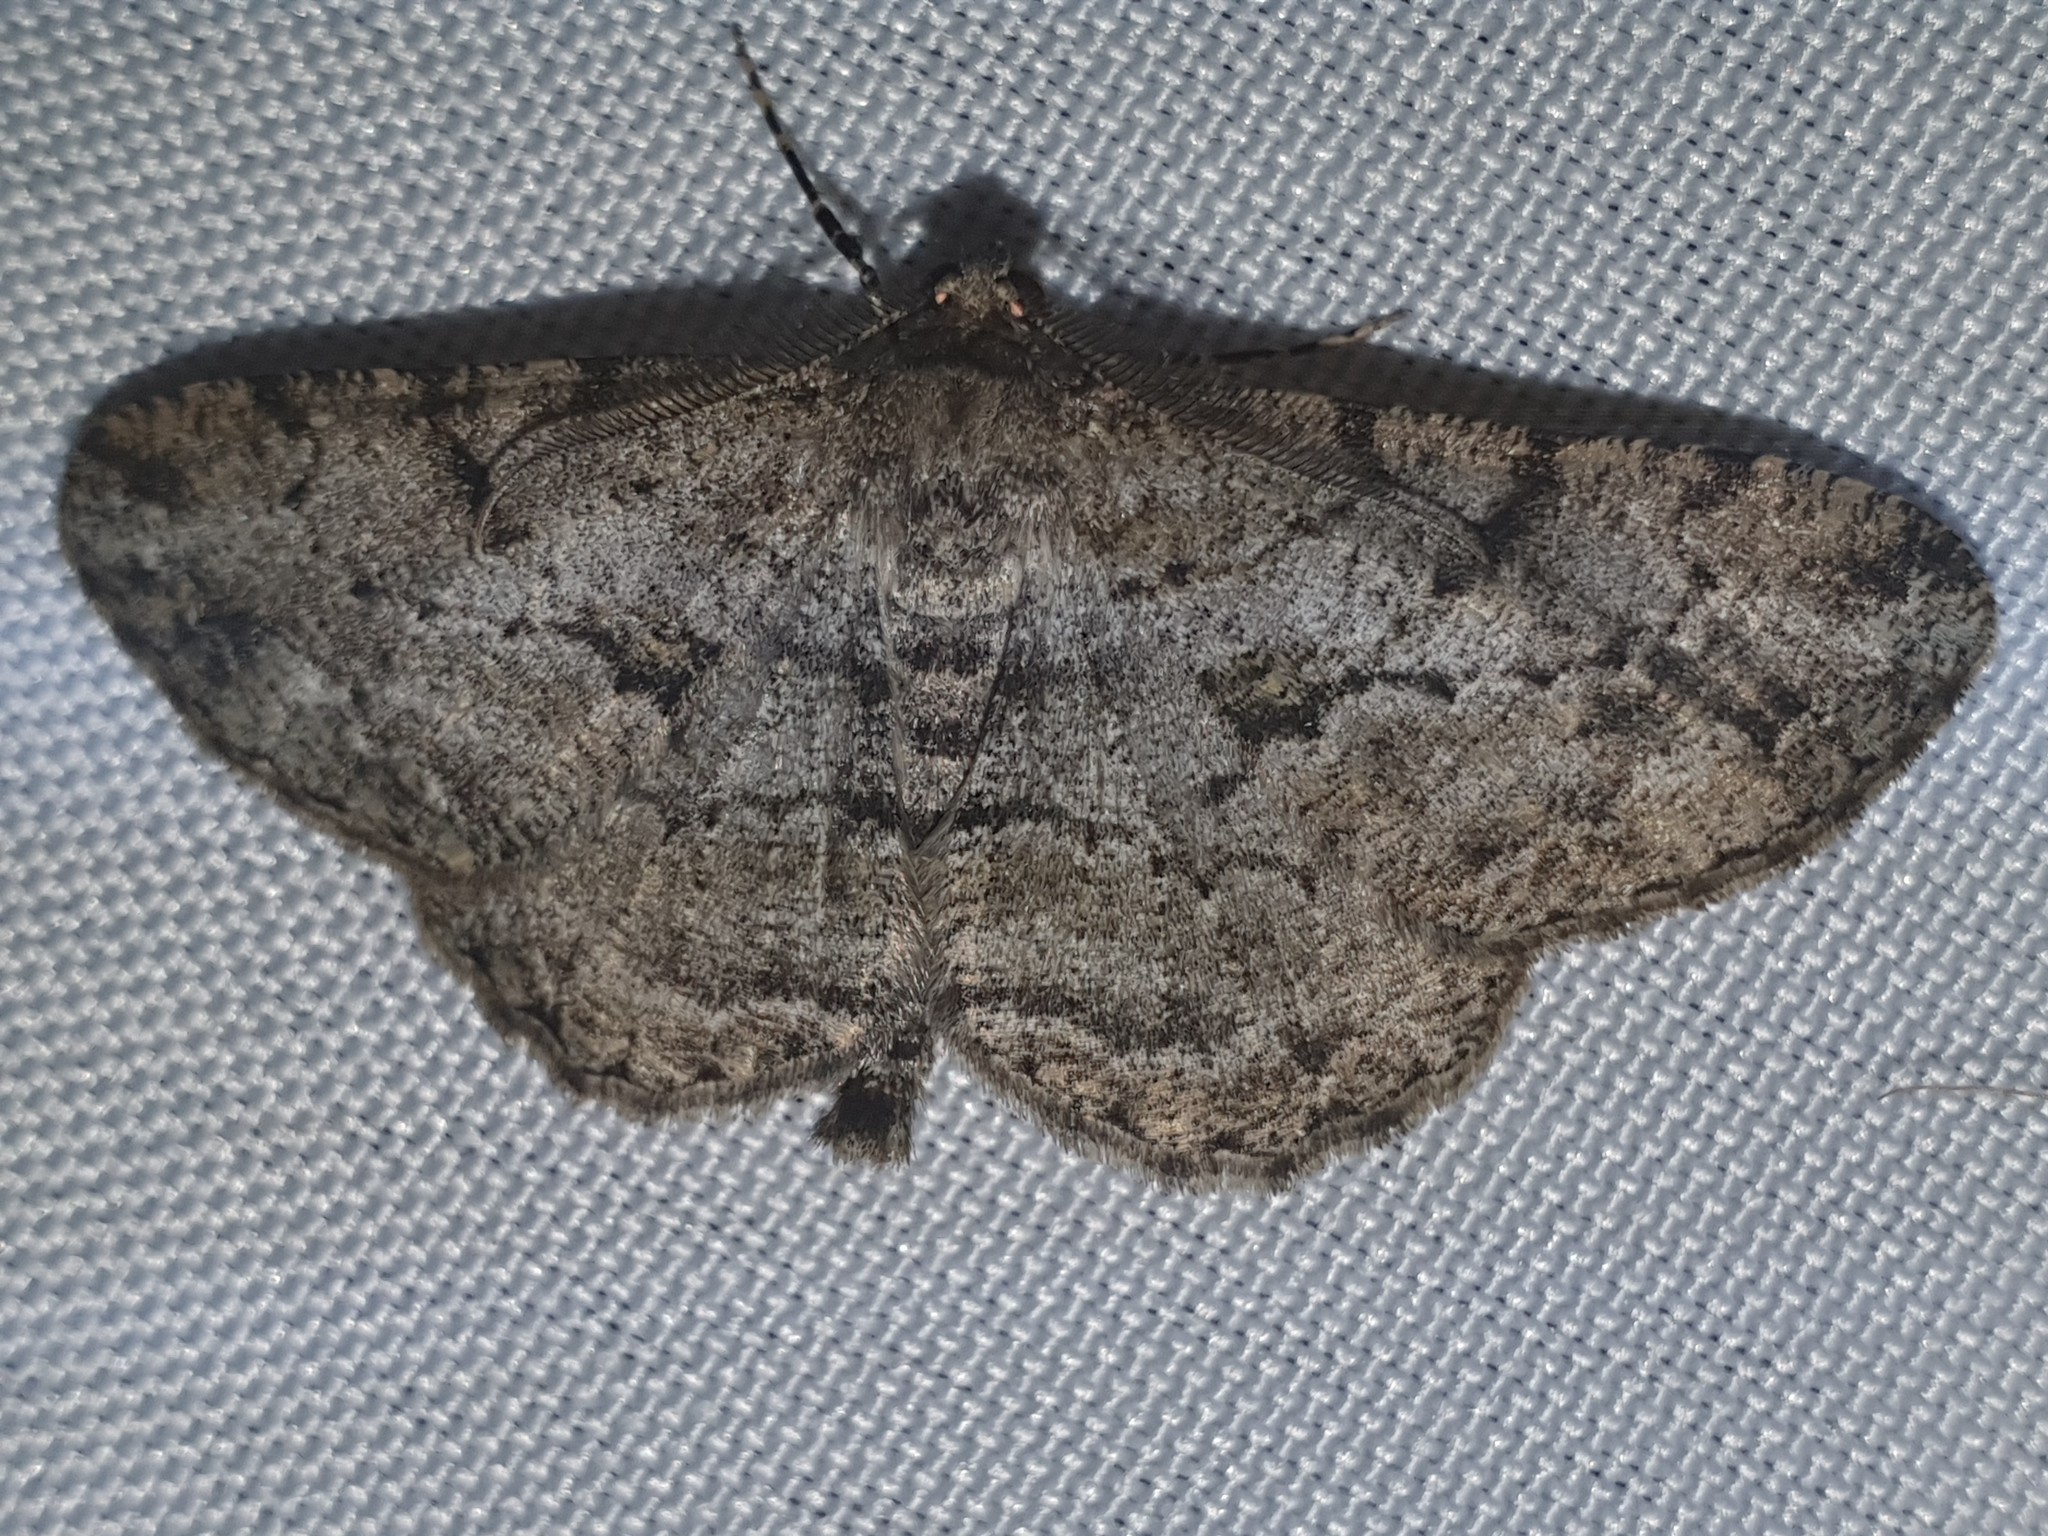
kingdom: Animalia
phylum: Arthropoda
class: Insecta
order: Lepidoptera
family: Geometridae
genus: Peribatodes
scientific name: Peribatodes rhomboidaria
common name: Willow beauty
